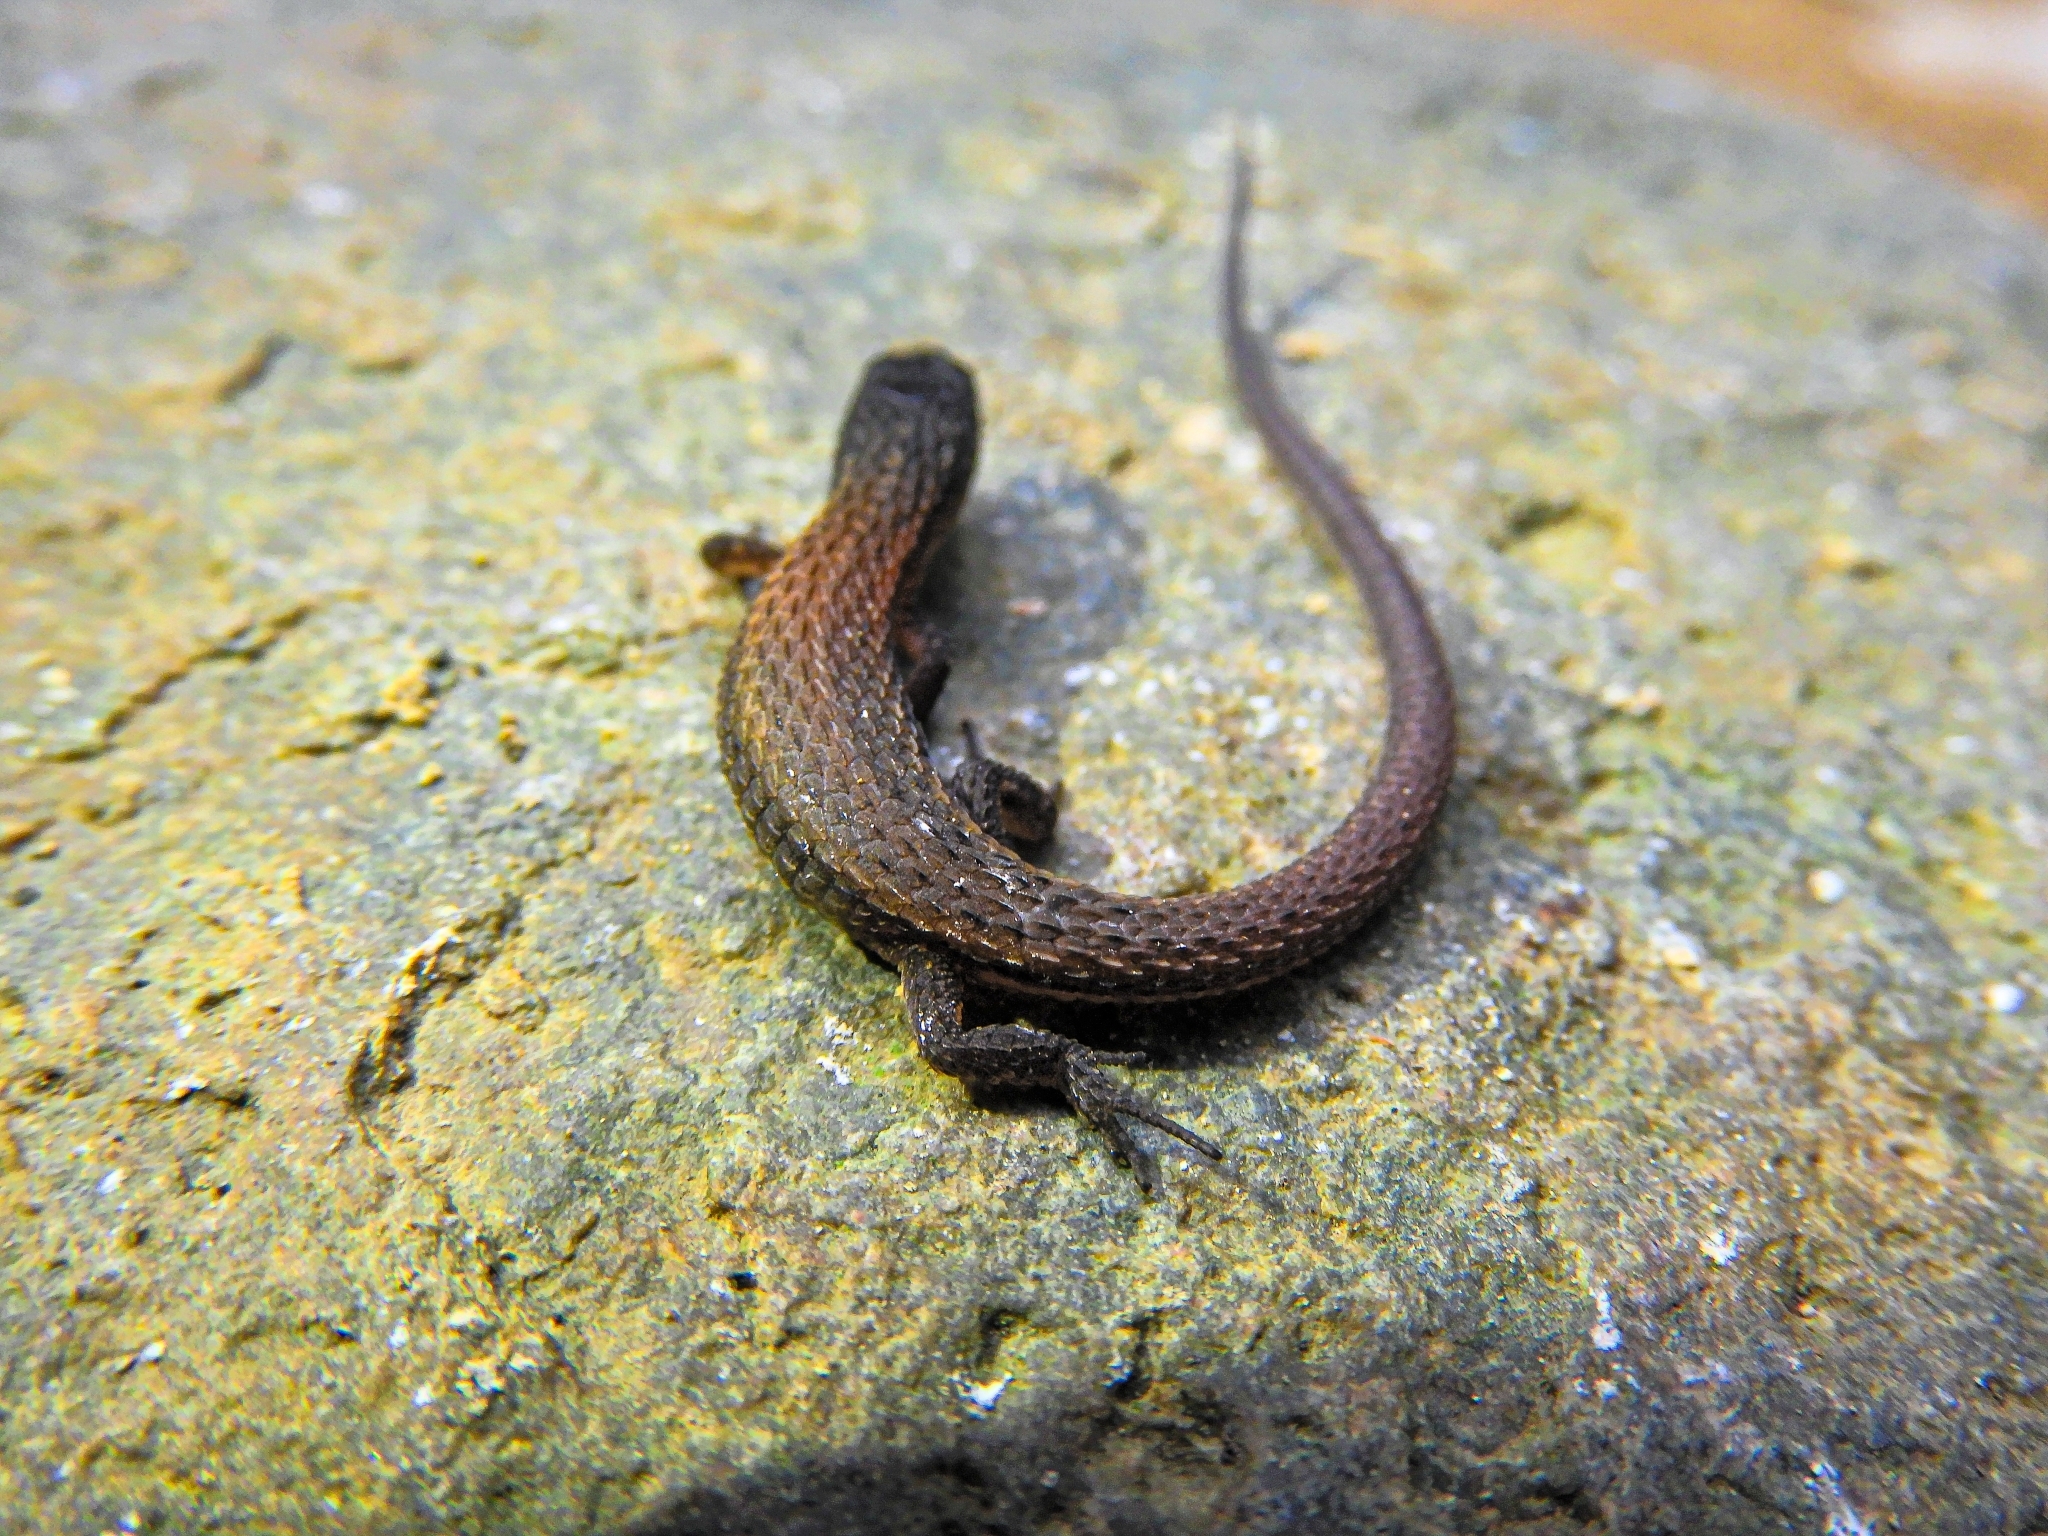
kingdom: Animalia
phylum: Chordata
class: Squamata
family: Gymnophthalmidae
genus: Loxopholis
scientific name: Loxopholis rugiceps
